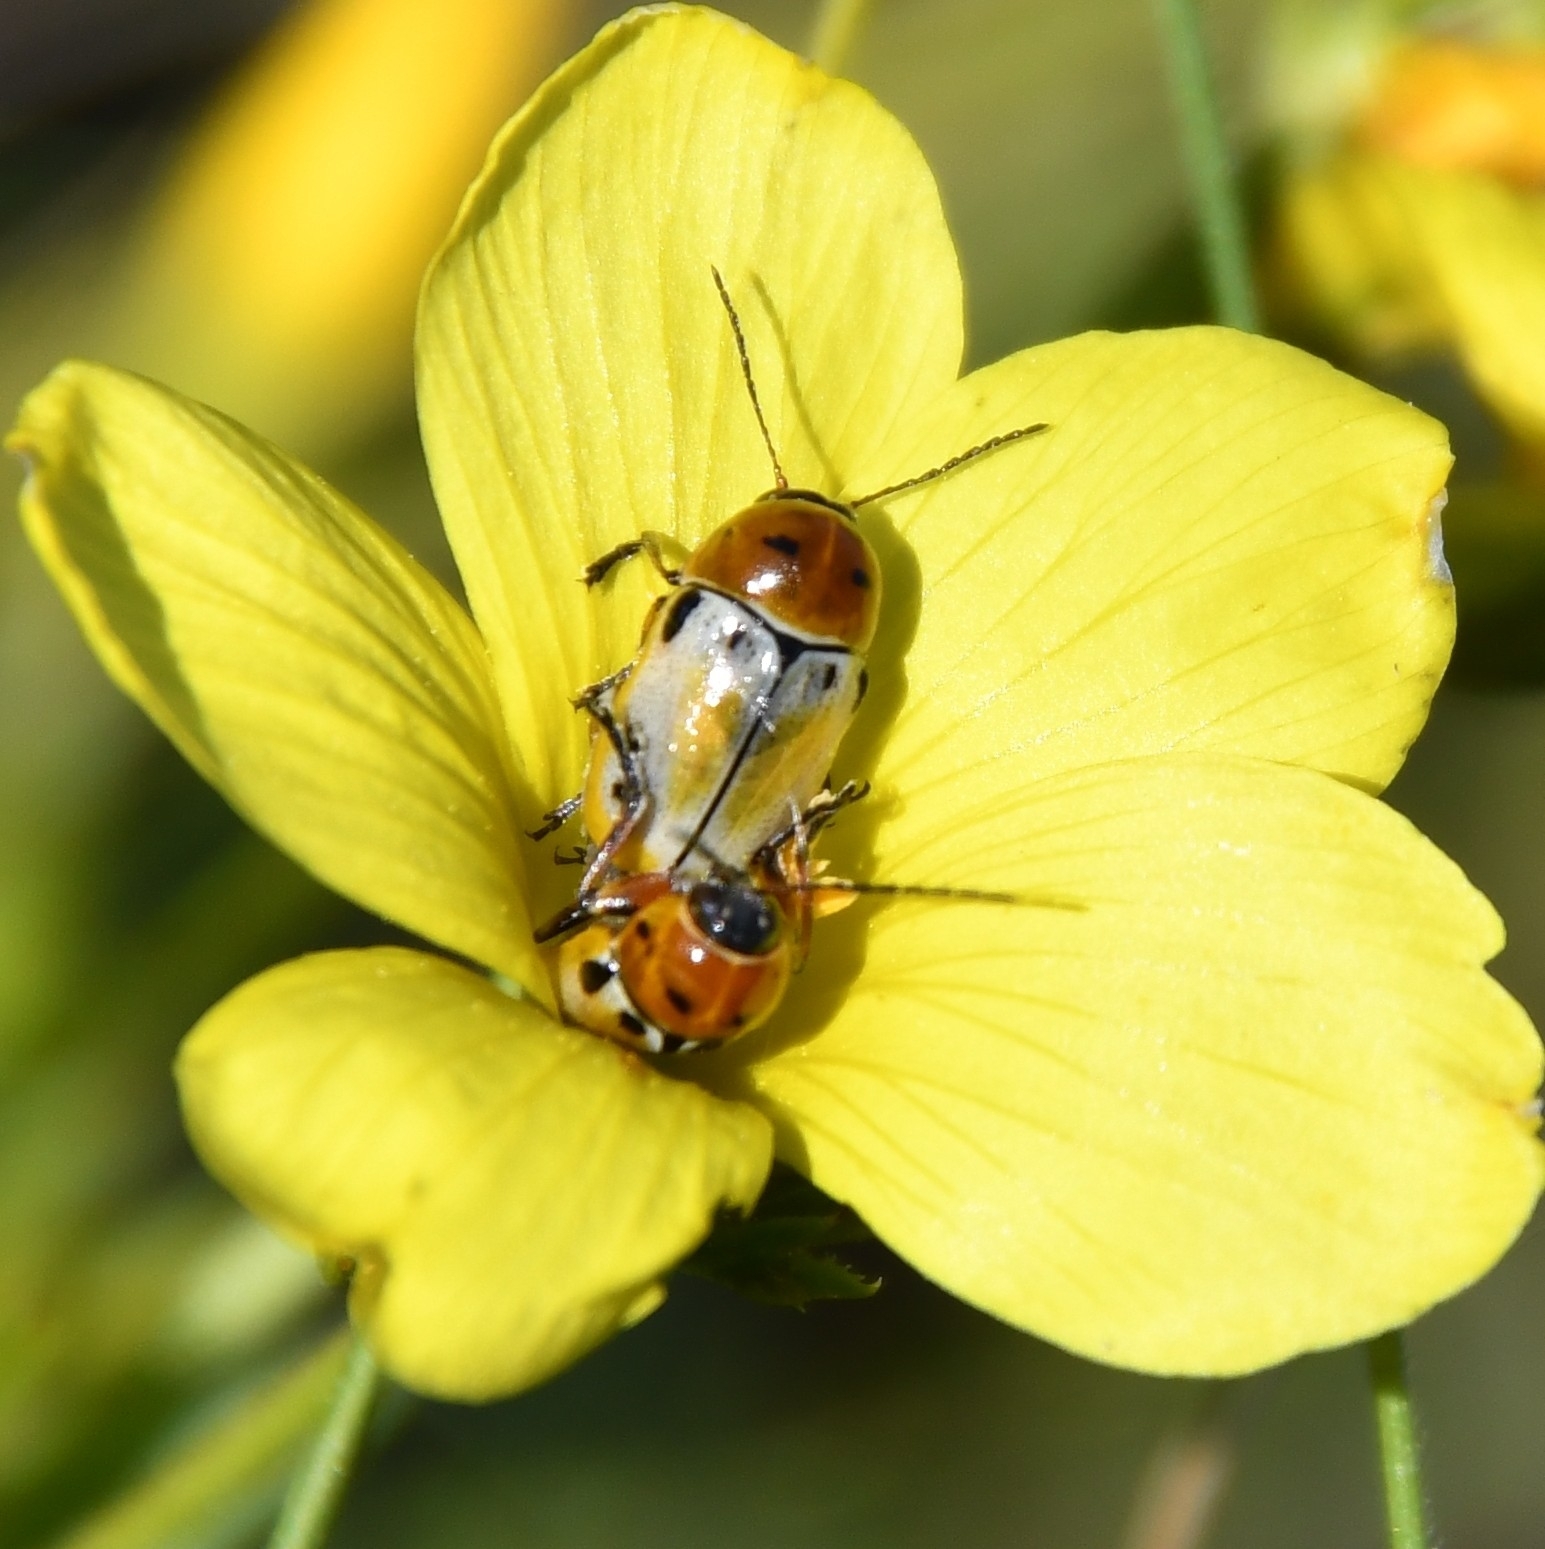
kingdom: Animalia
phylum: Arthropoda
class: Insecta
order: Coleoptera
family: Chrysomelidae
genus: Cryptocephalus
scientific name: Cryptocephalus quatuordecimmaculatus
